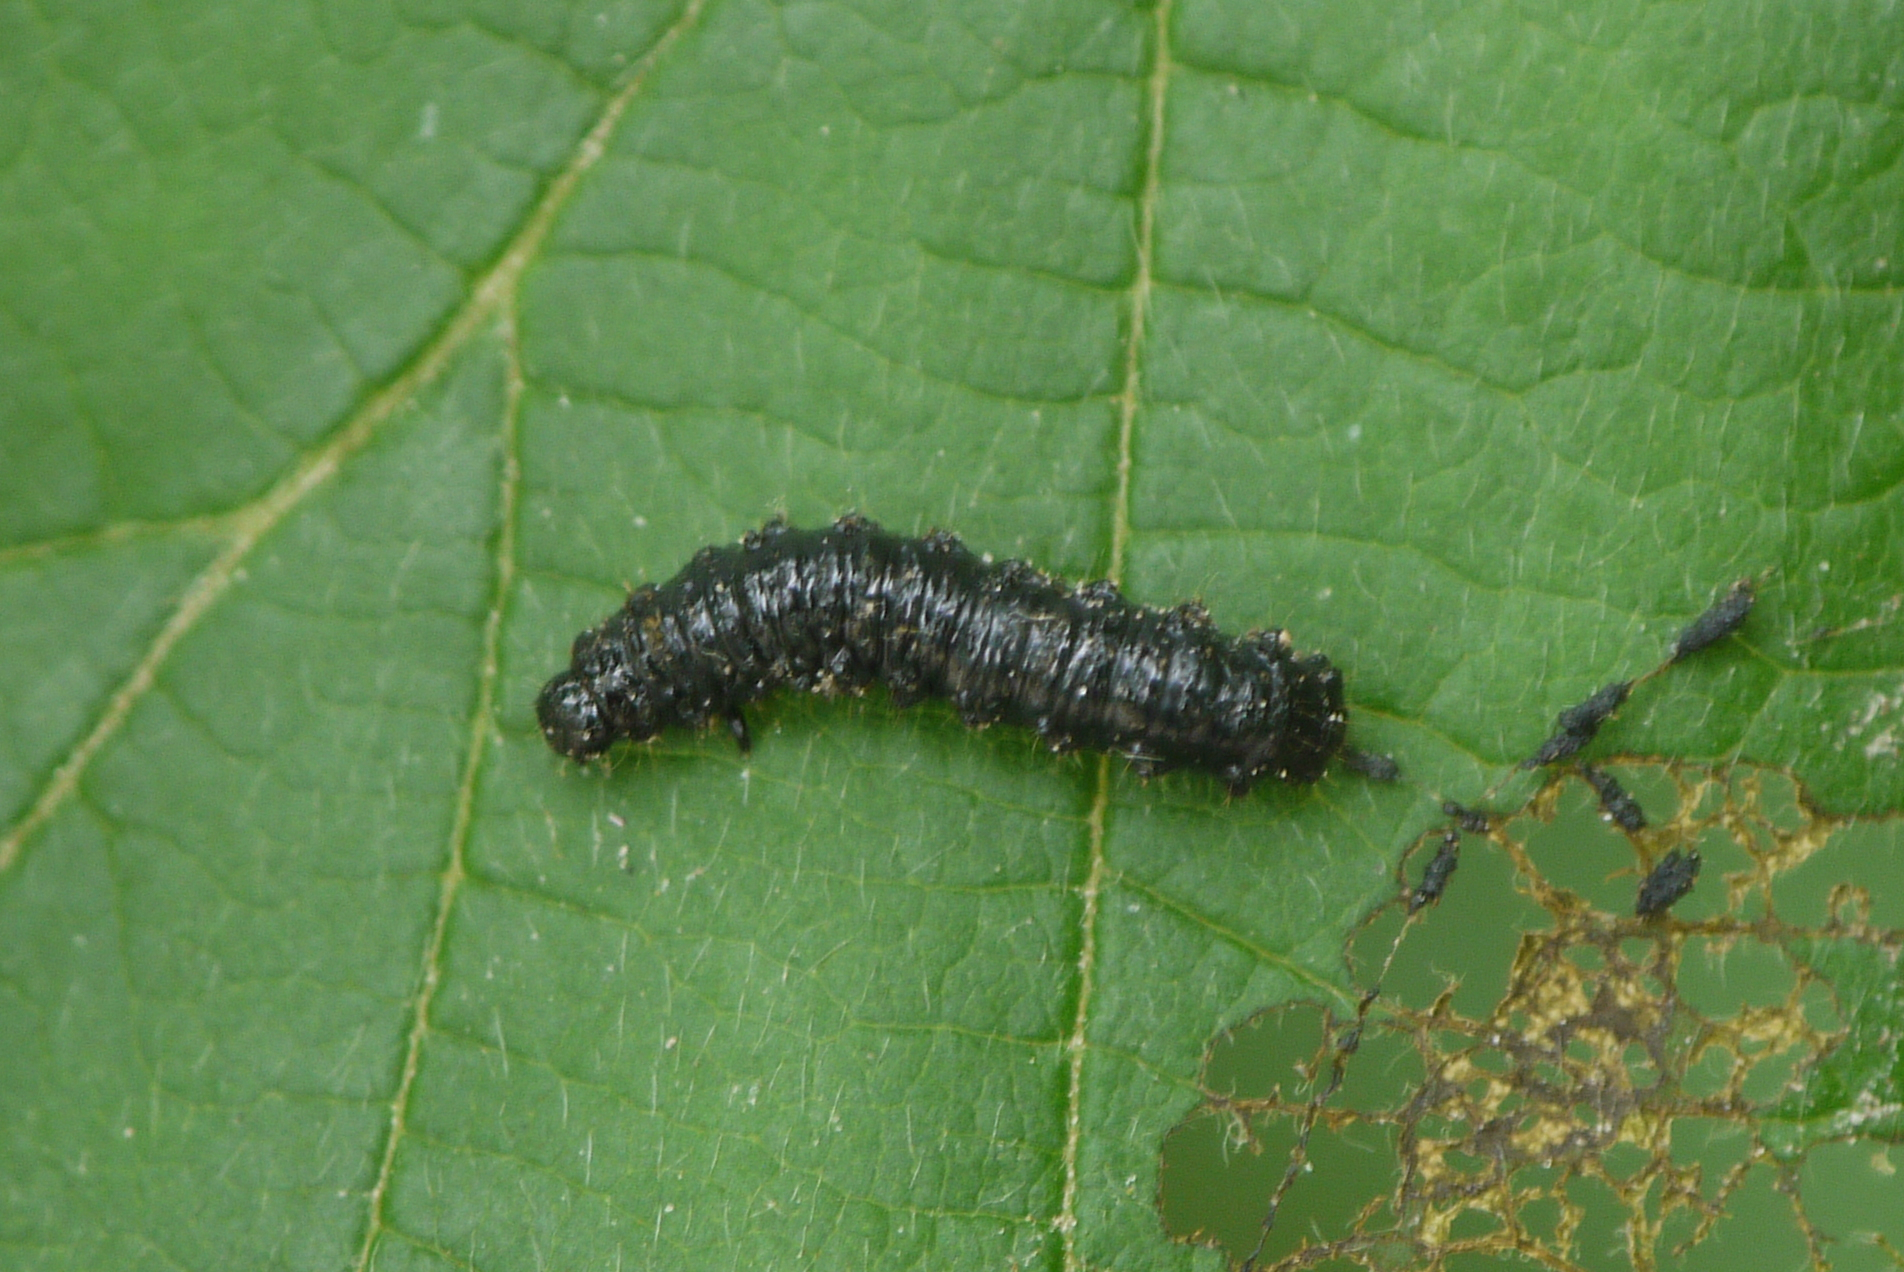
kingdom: Animalia
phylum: Arthropoda
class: Insecta
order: Coleoptera
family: Chrysomelidae
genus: Agelastica
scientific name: Agelastica alni
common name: Alder leaf beetle
